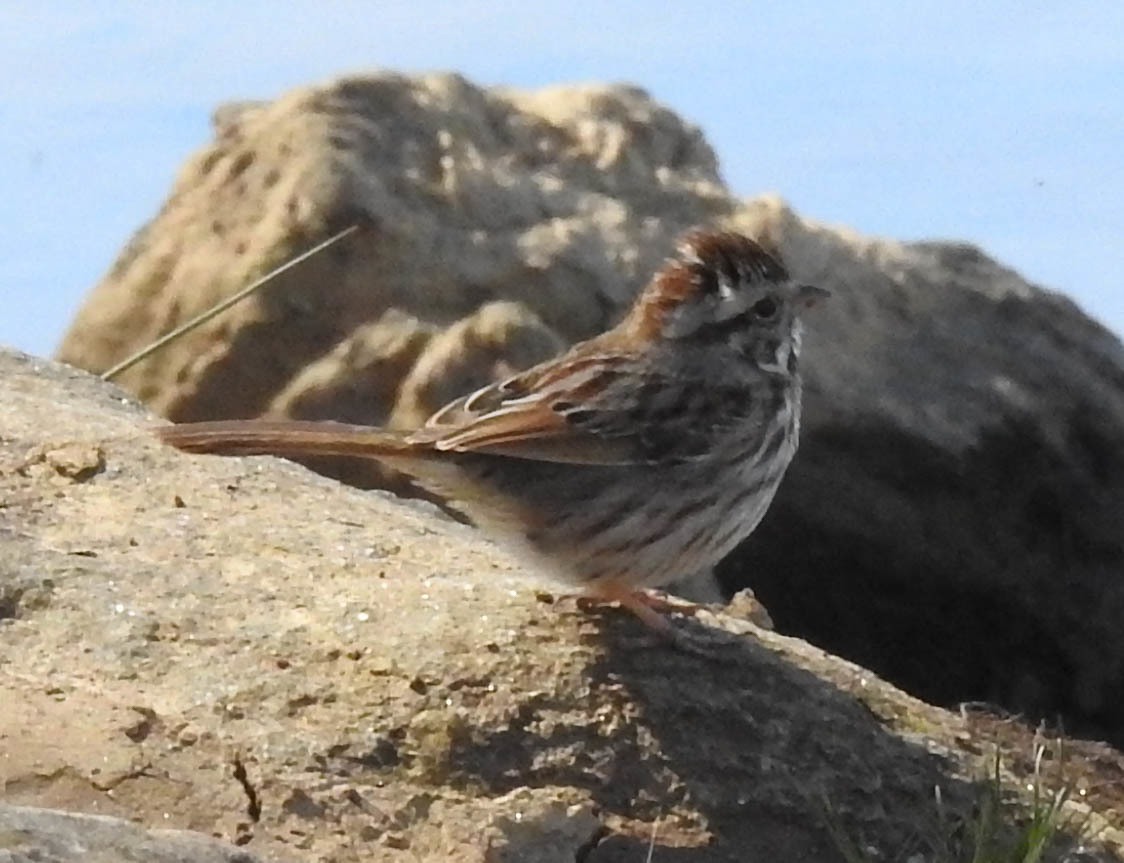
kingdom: Animalia
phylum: Chordata
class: Aves
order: Passeriformes
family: Passerellidae
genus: Melospiza
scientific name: Melospiza melodia
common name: Song sparrow
